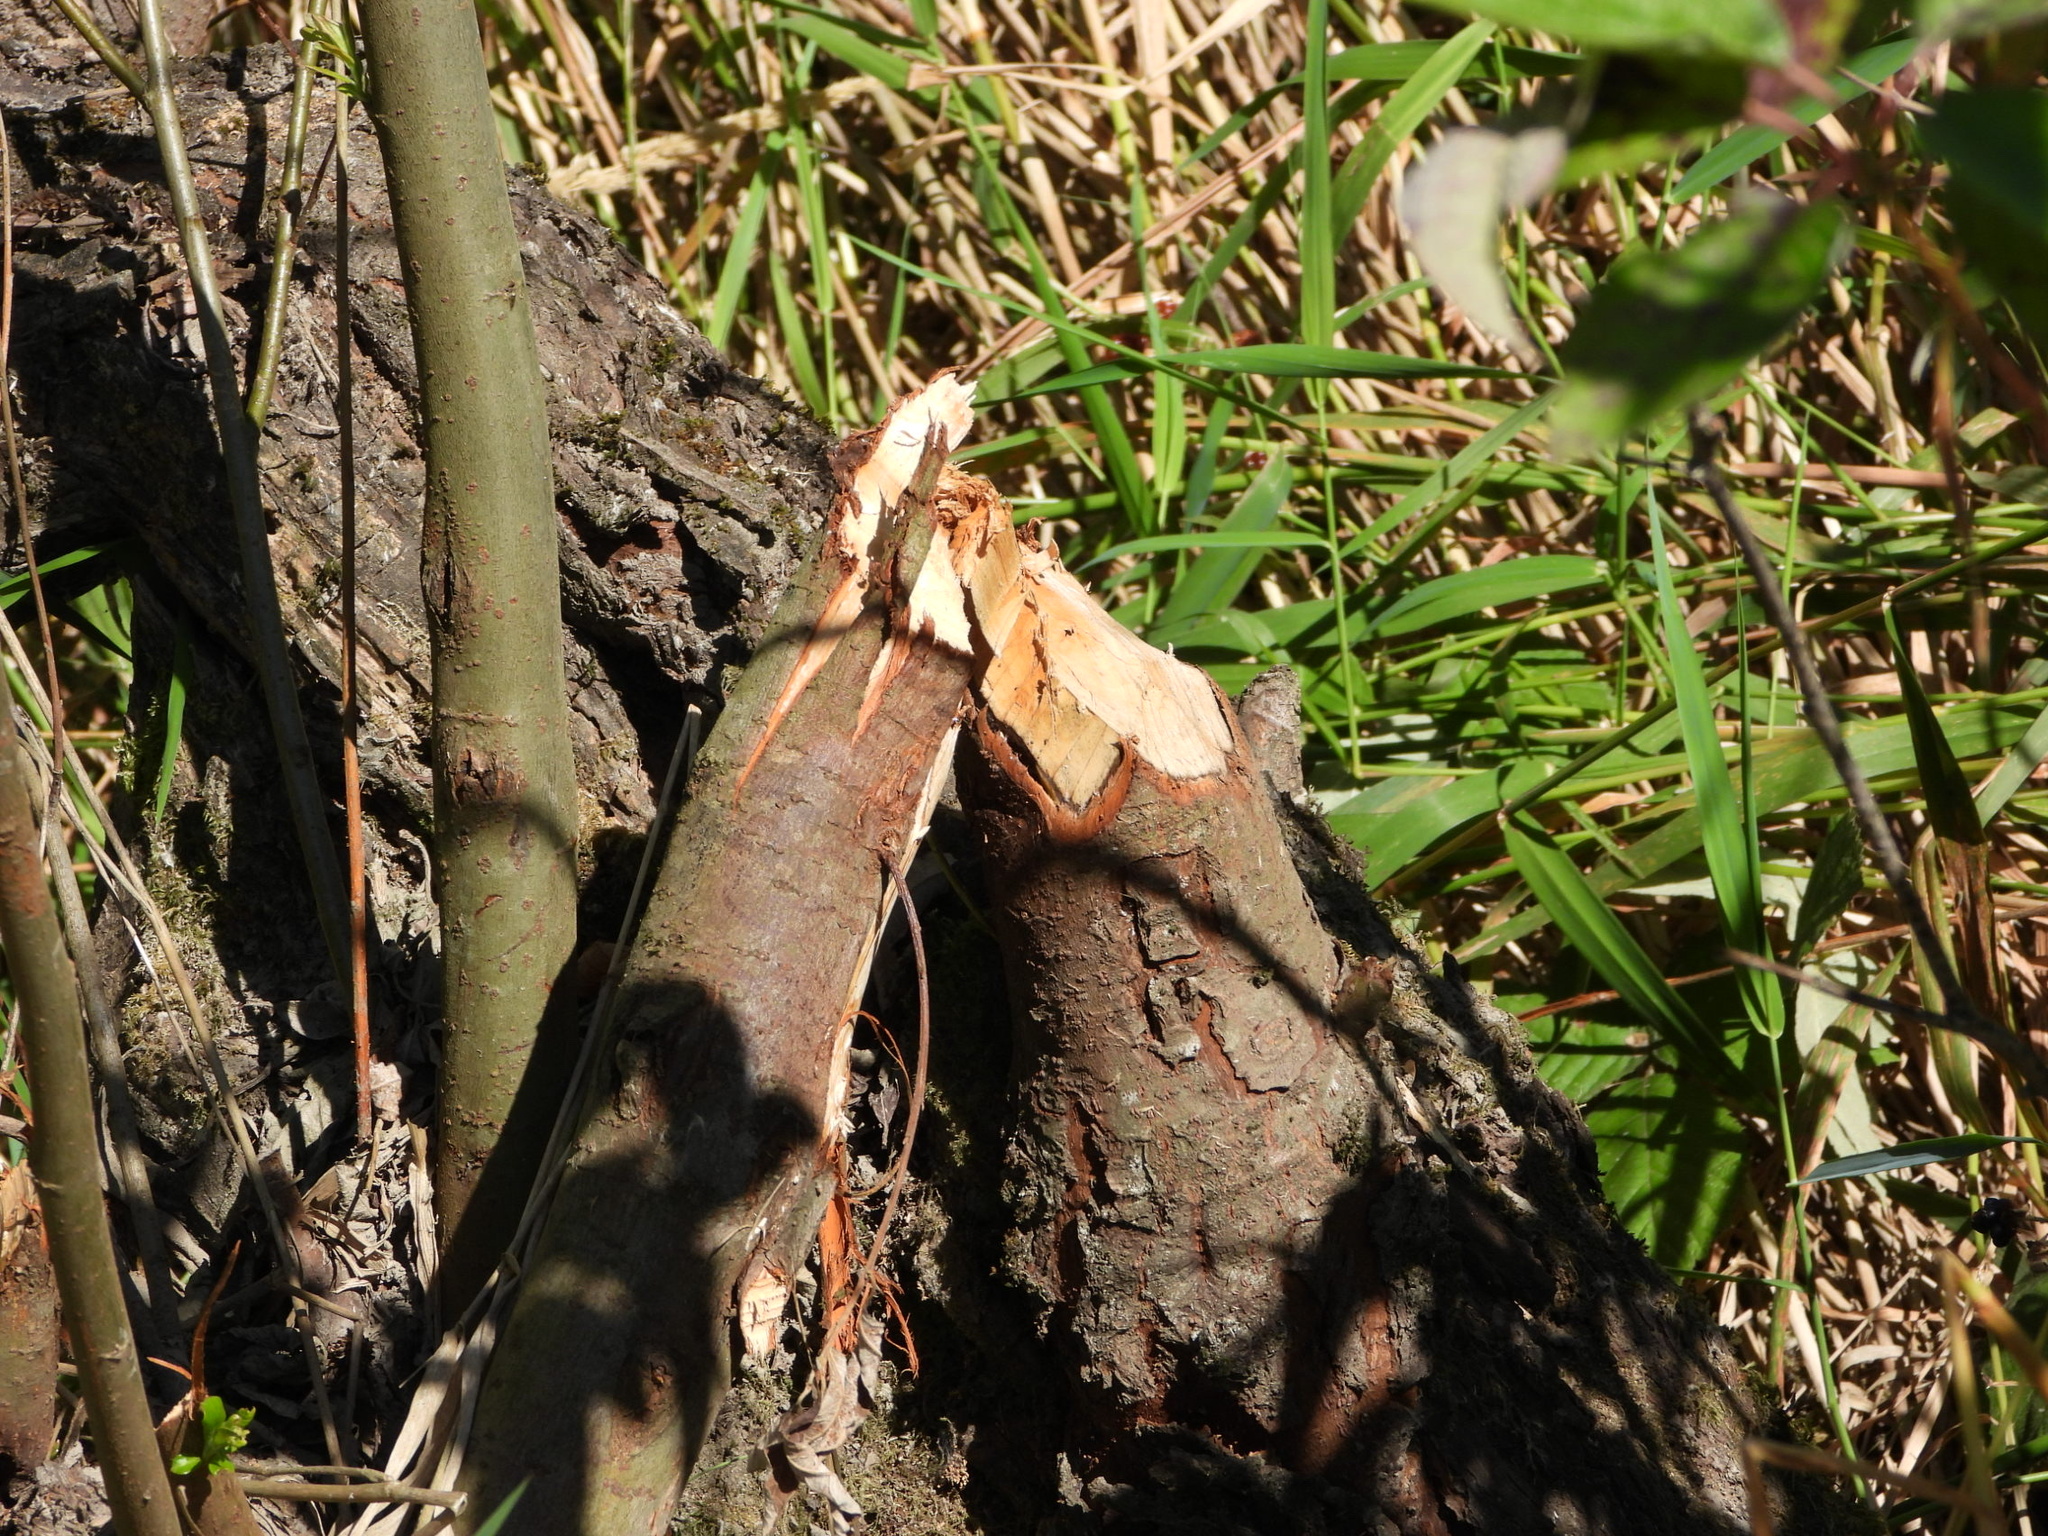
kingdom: Animalia
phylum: Chordata
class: Mammalia
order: Rodentia
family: Castoridae
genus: Castor
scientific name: Castor canadensis
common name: American beaver
